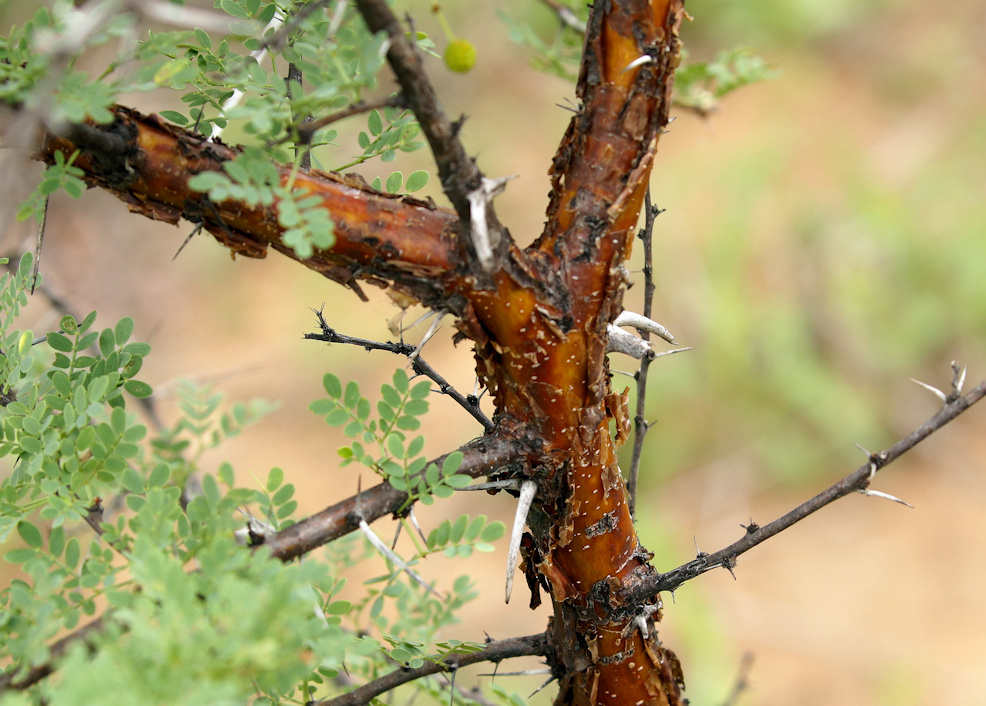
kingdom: Plantae
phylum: Tracheophyta
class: Magnoliopsida
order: Fabales
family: Fabaceae
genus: Vachellia
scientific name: Vachellia exuvialis
